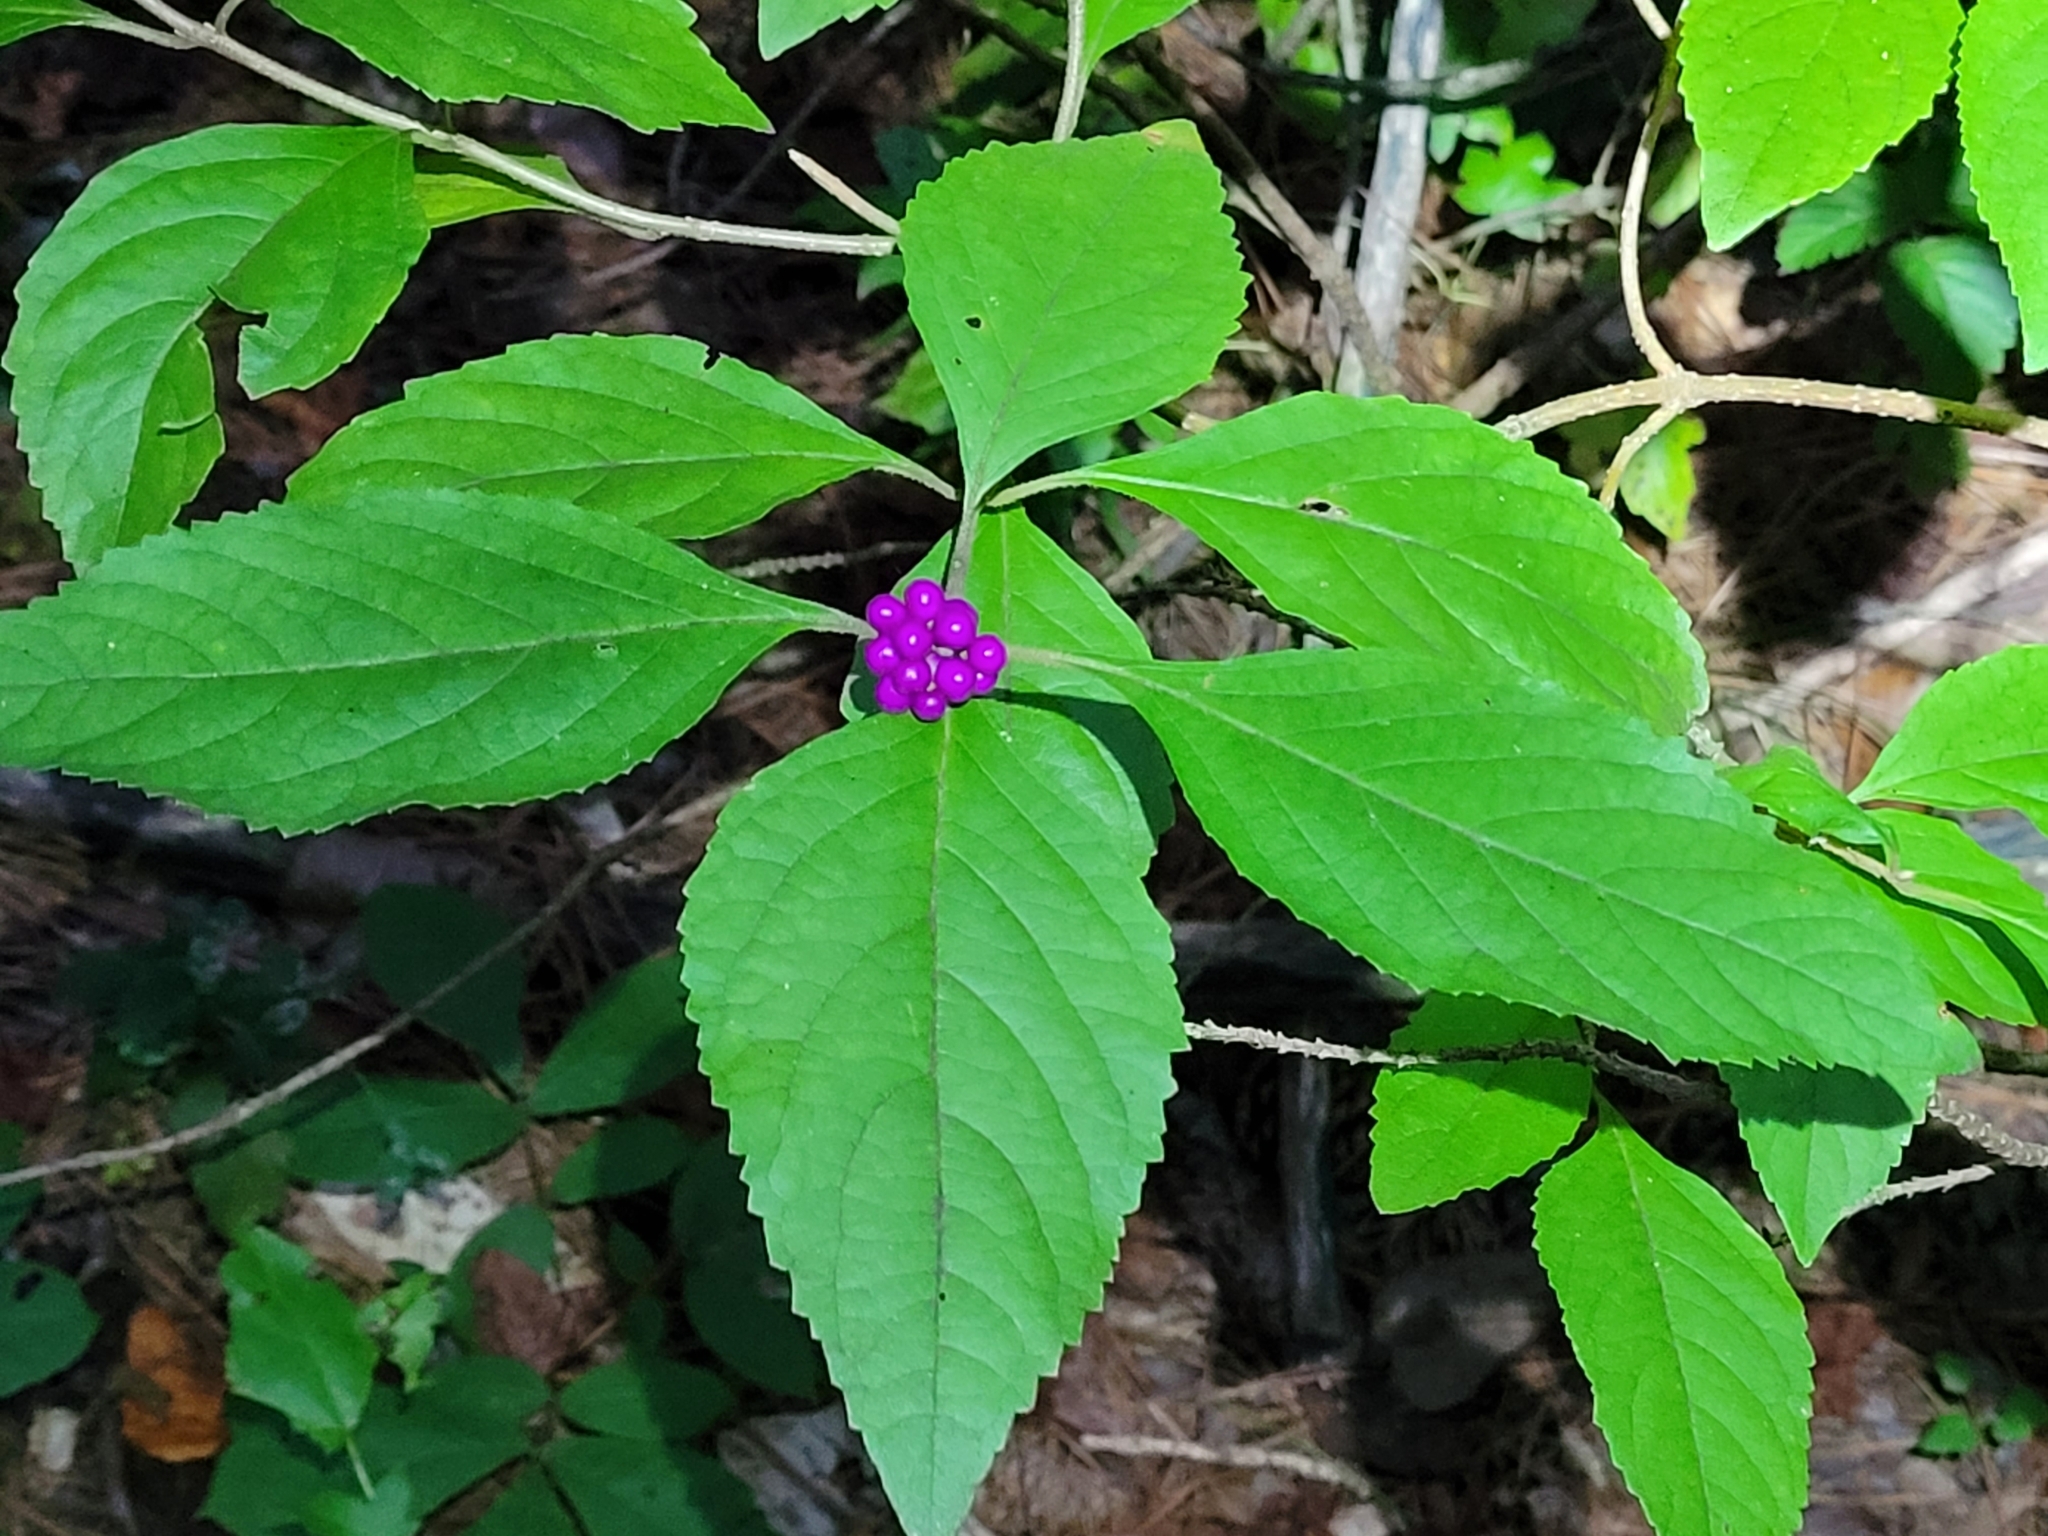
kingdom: Plantae
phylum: Tracheophyta
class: Magnoliopsida
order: Lamiales
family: Lamiaceae
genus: Callicarpa
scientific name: Callicarpa americana
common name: American beautyberry
